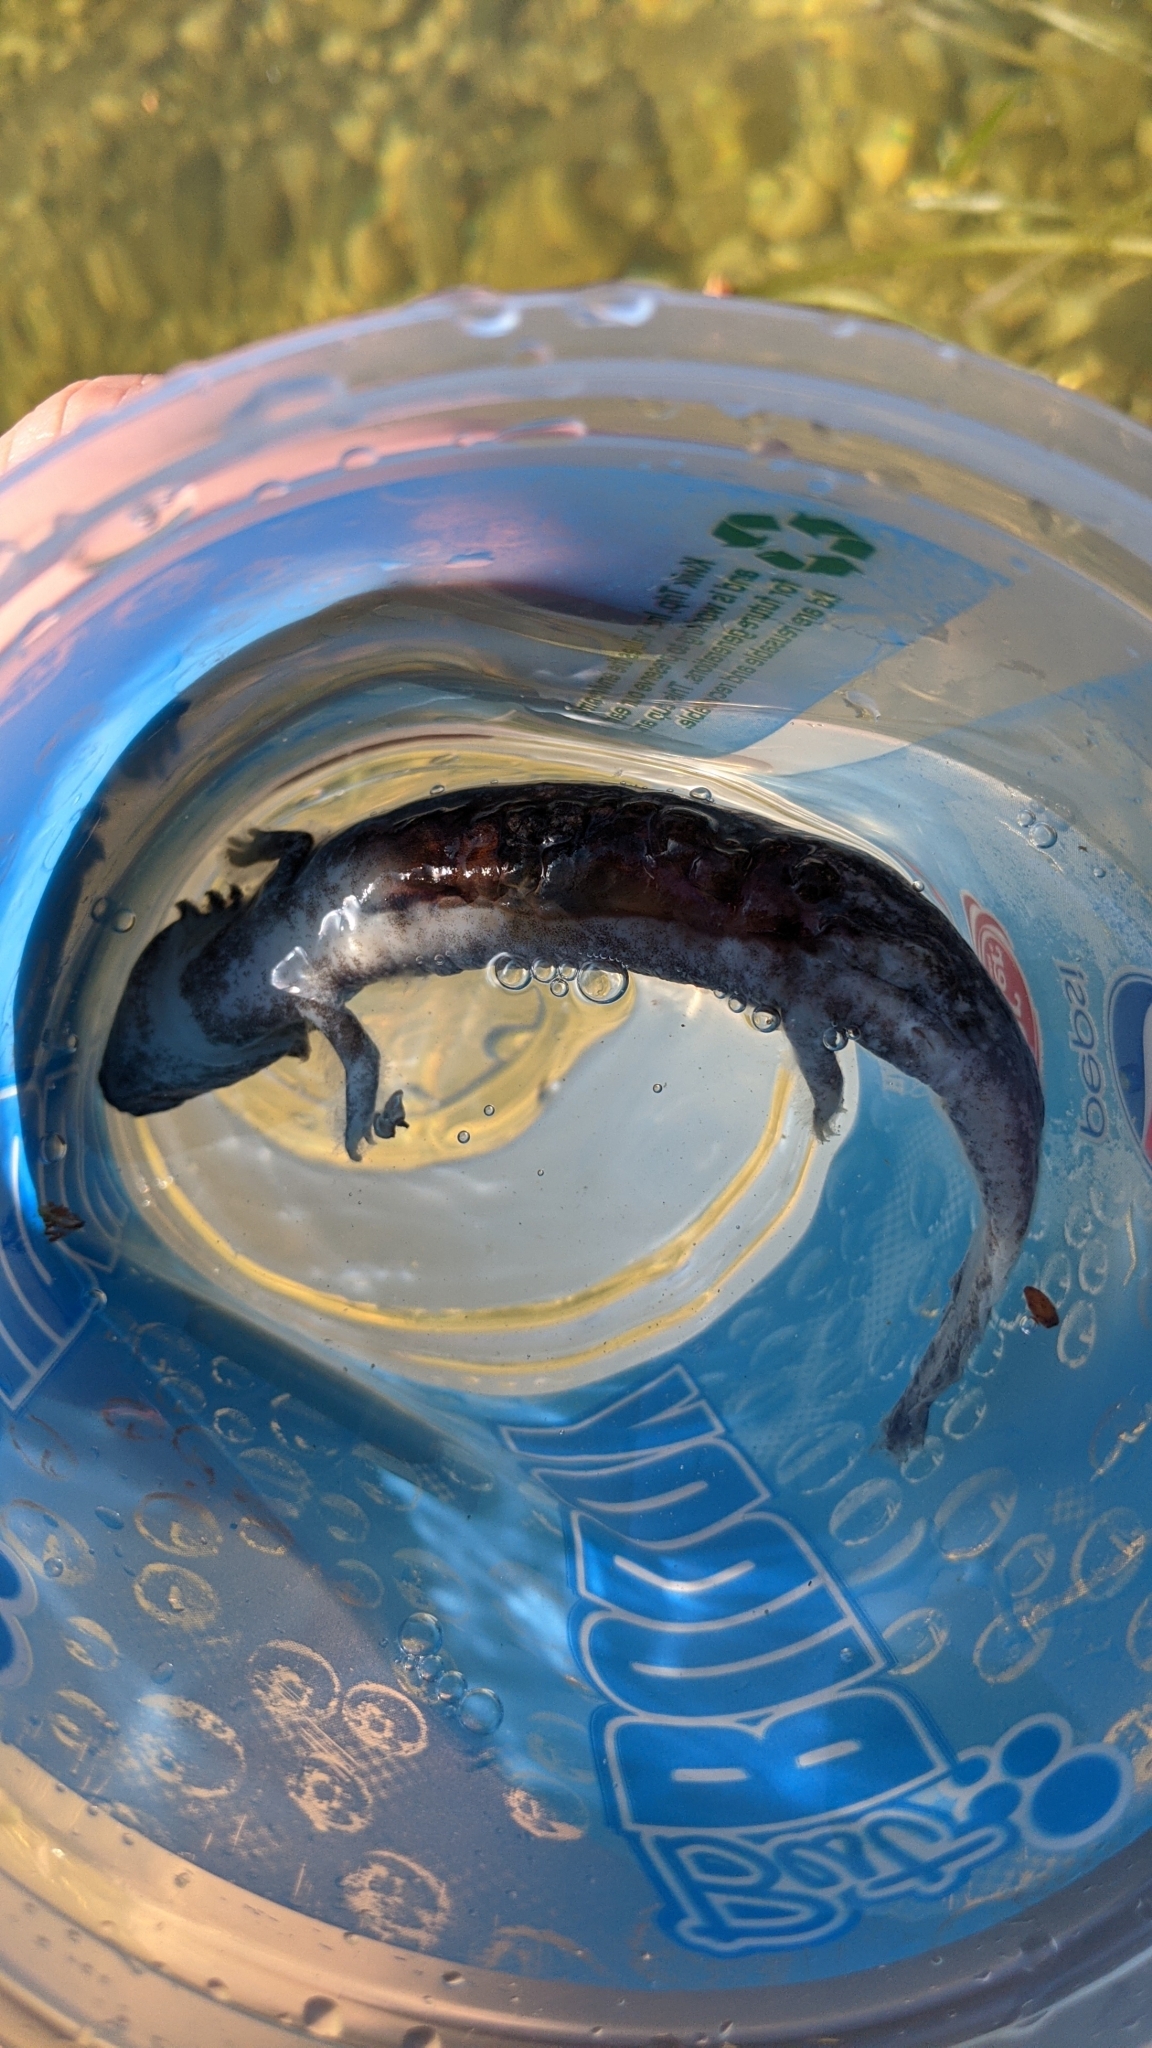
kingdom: Animalia
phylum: Chordata
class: Amphibia
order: Caudata
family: Proteidae
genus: Necturus
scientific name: Necturus maculosus
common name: Mudpuppy
